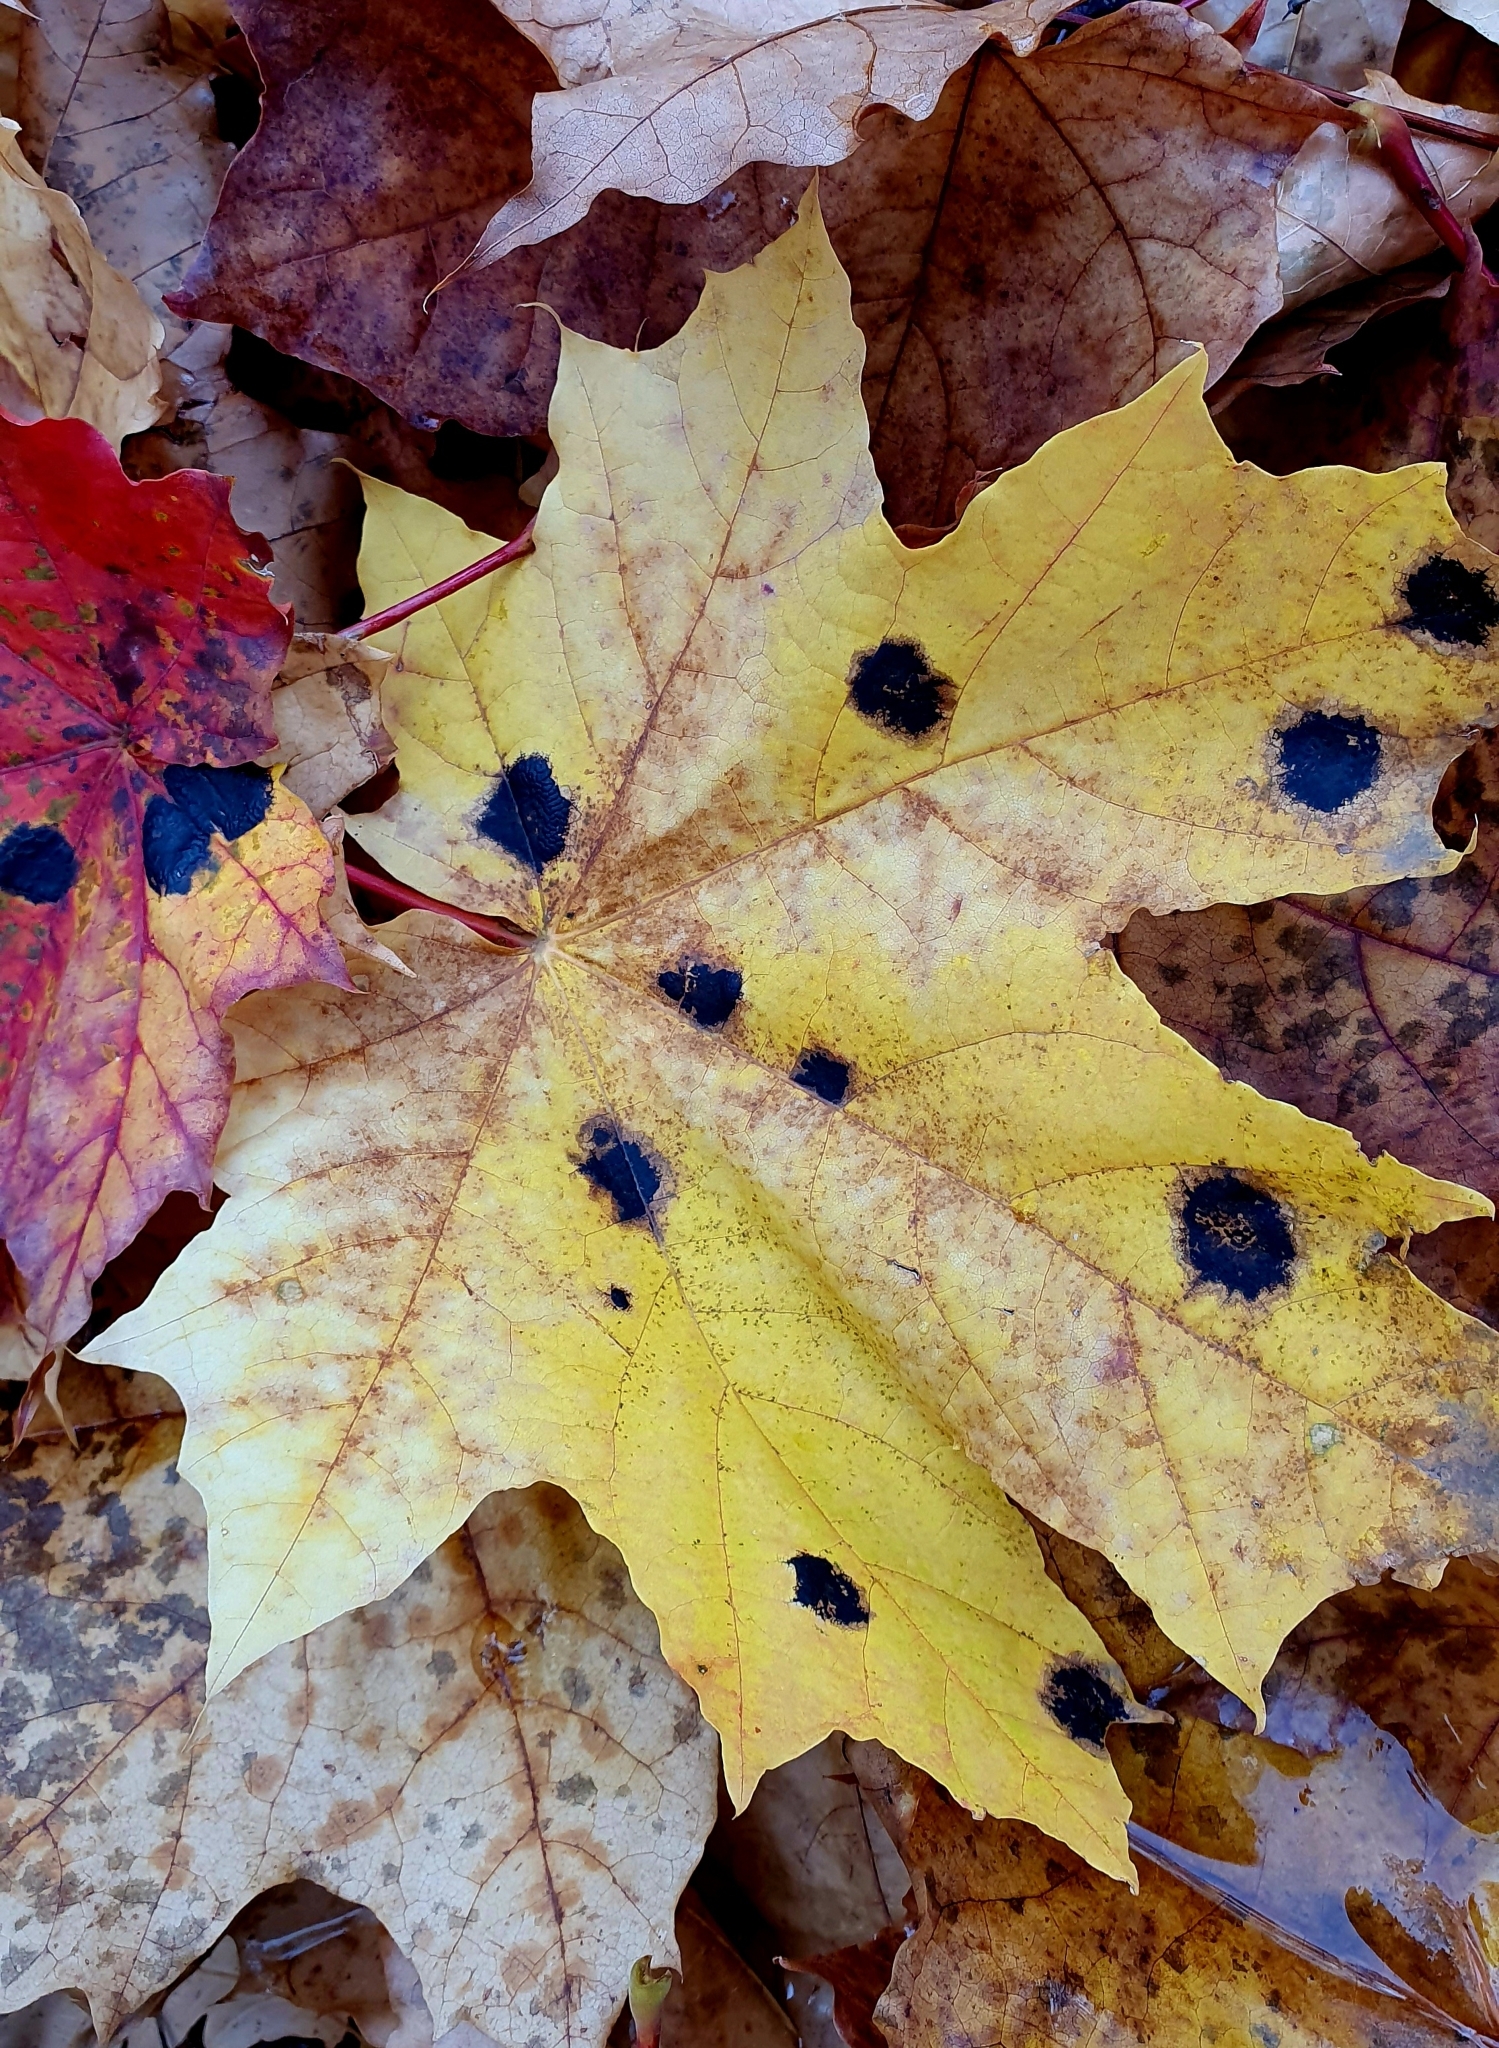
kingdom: Fungi
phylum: Ascomycota
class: Leotiomycetes
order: Rhytismatales
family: Rhytismataceae
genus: Rhytisma
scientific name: Rhytisma acerinum
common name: European tar spot
